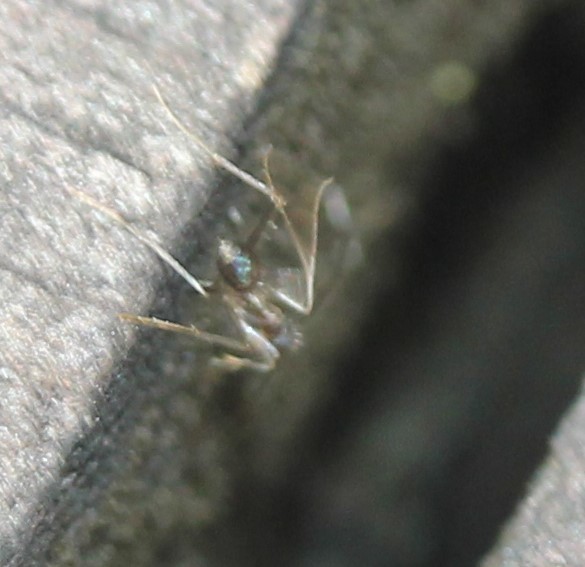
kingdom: Animalia
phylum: Arthropoda
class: Insecta
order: Hymenoptera
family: Formicidae
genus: Paratrechina
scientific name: Paratrechina longicornis
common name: Longhorned crazy ant
